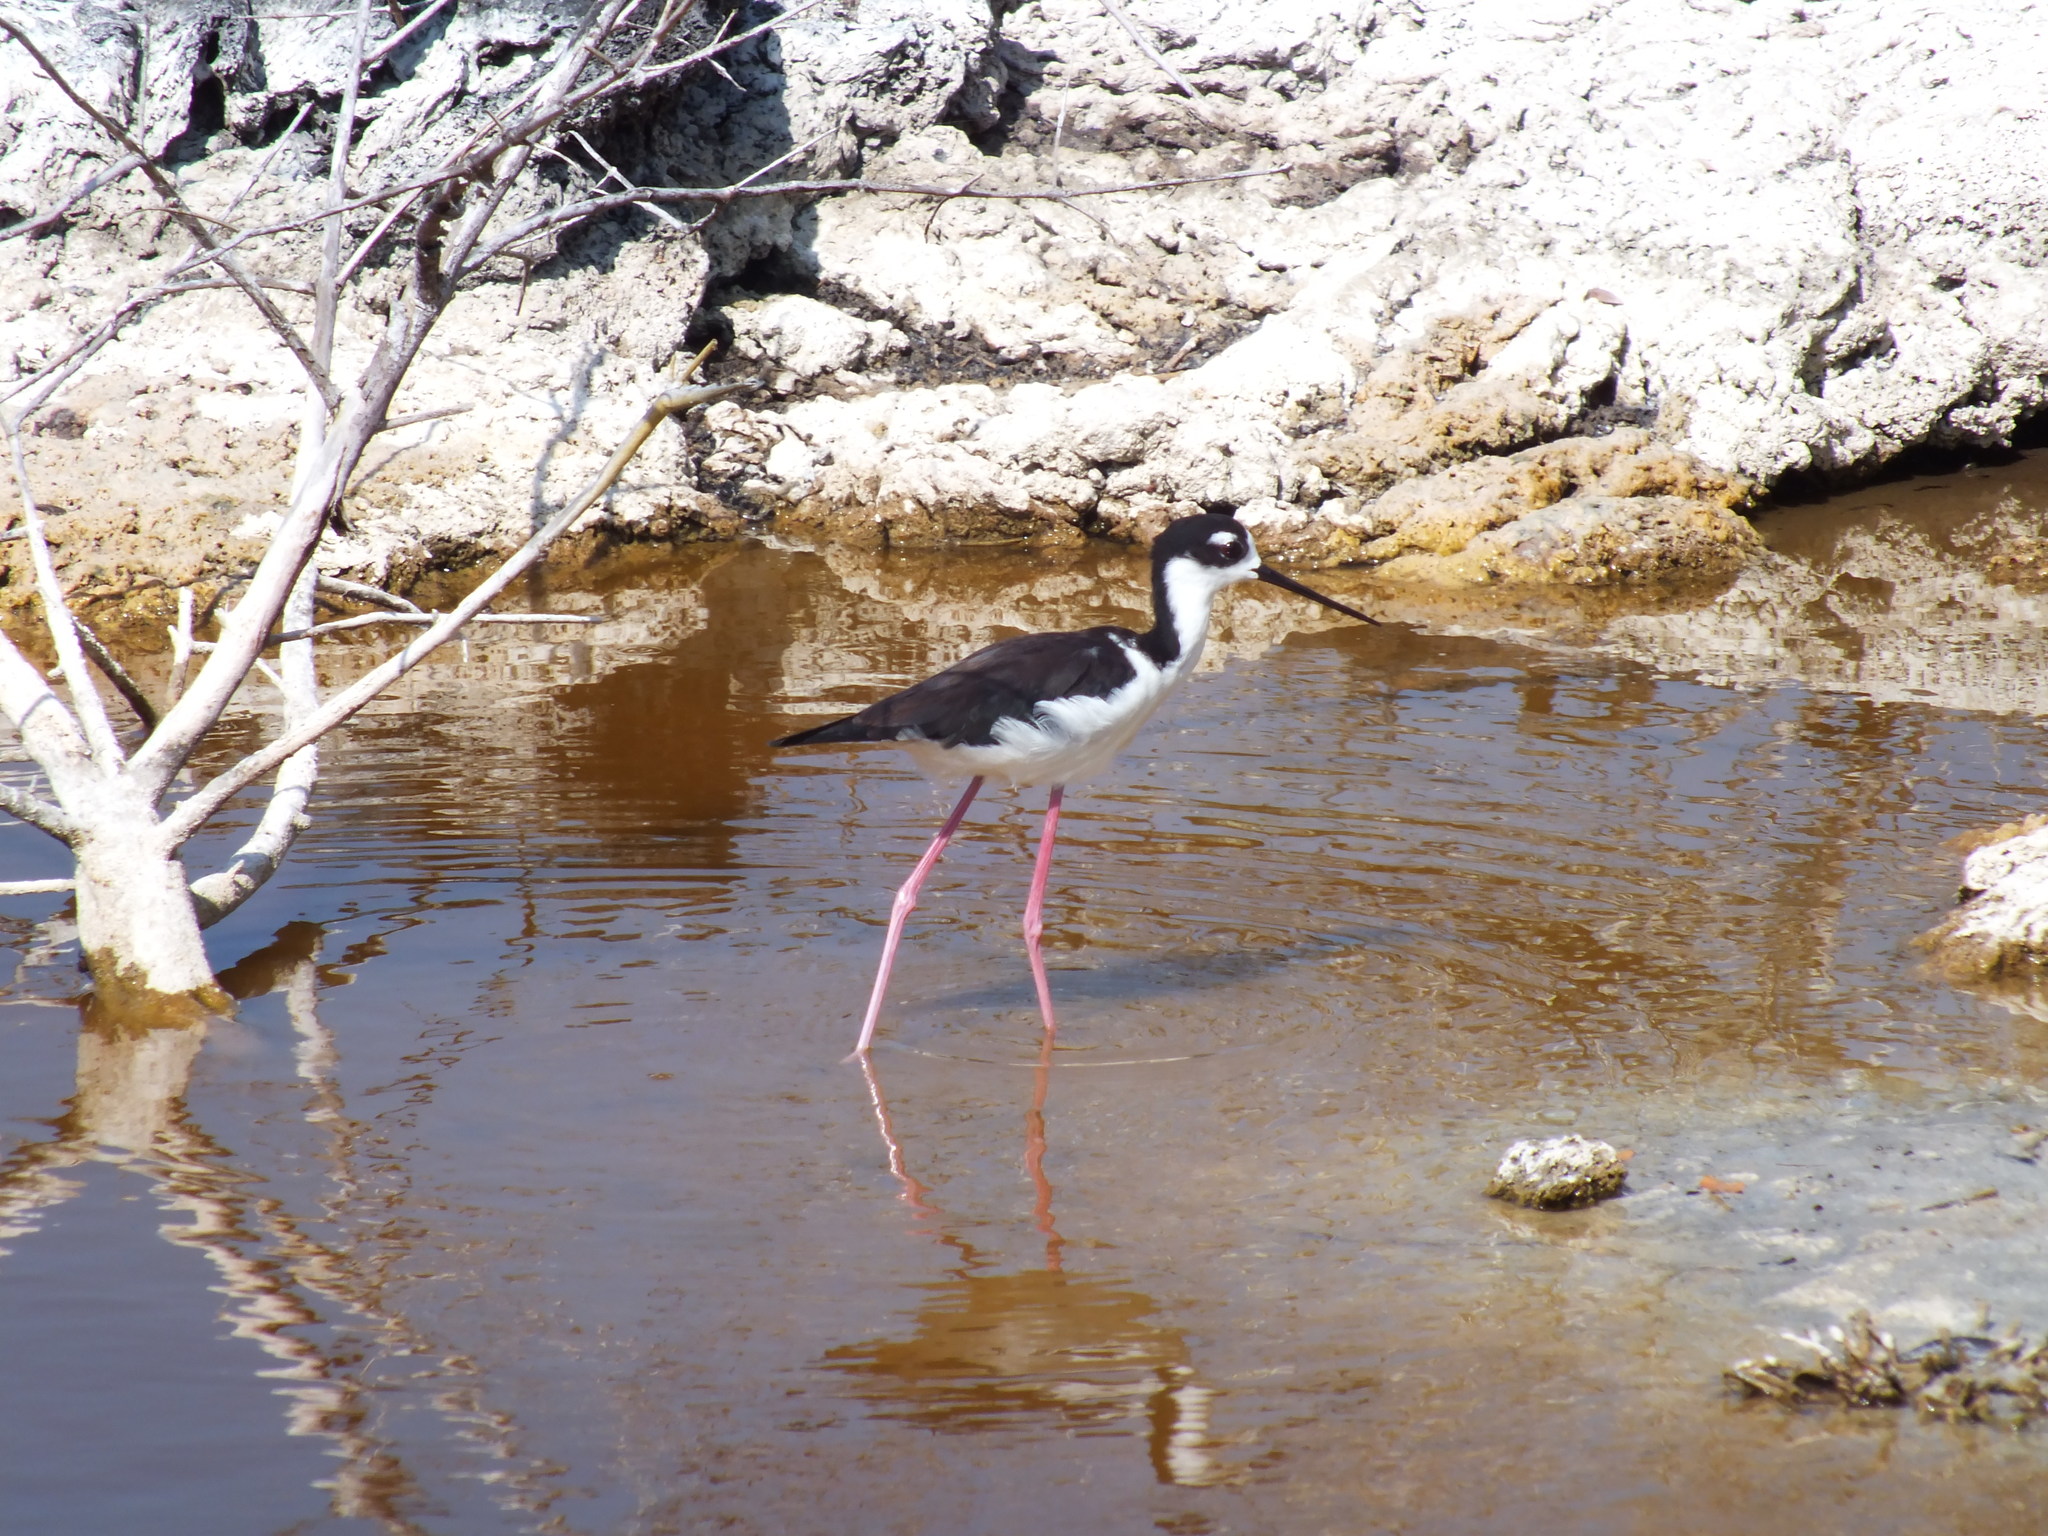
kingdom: Animalia
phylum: Chordata
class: Aves
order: Charadriiformes
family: Recurvirostridae
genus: Himantopus
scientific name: Himantopus mexicanus
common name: Black-necked stilt
